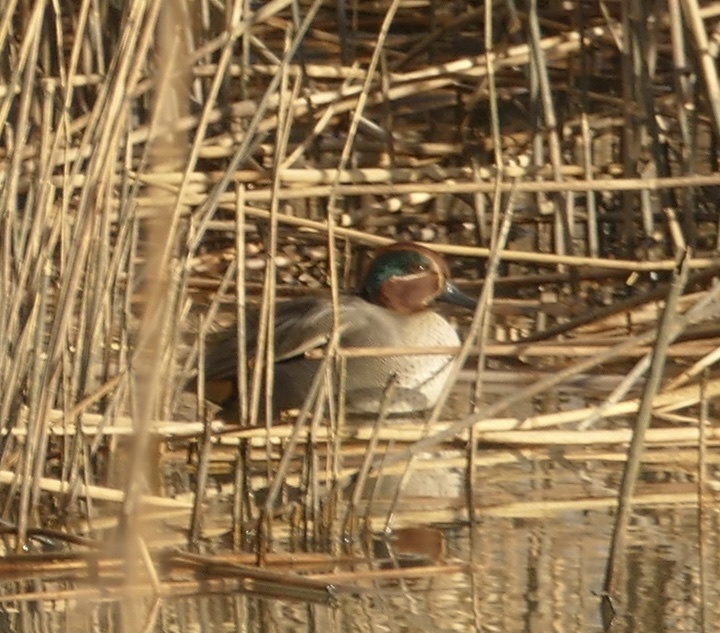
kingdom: Animalia
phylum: Chordata
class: Aves
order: Anseriformes
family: Anatidae
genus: Anas
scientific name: Anas crecca
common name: Eurasian teal
